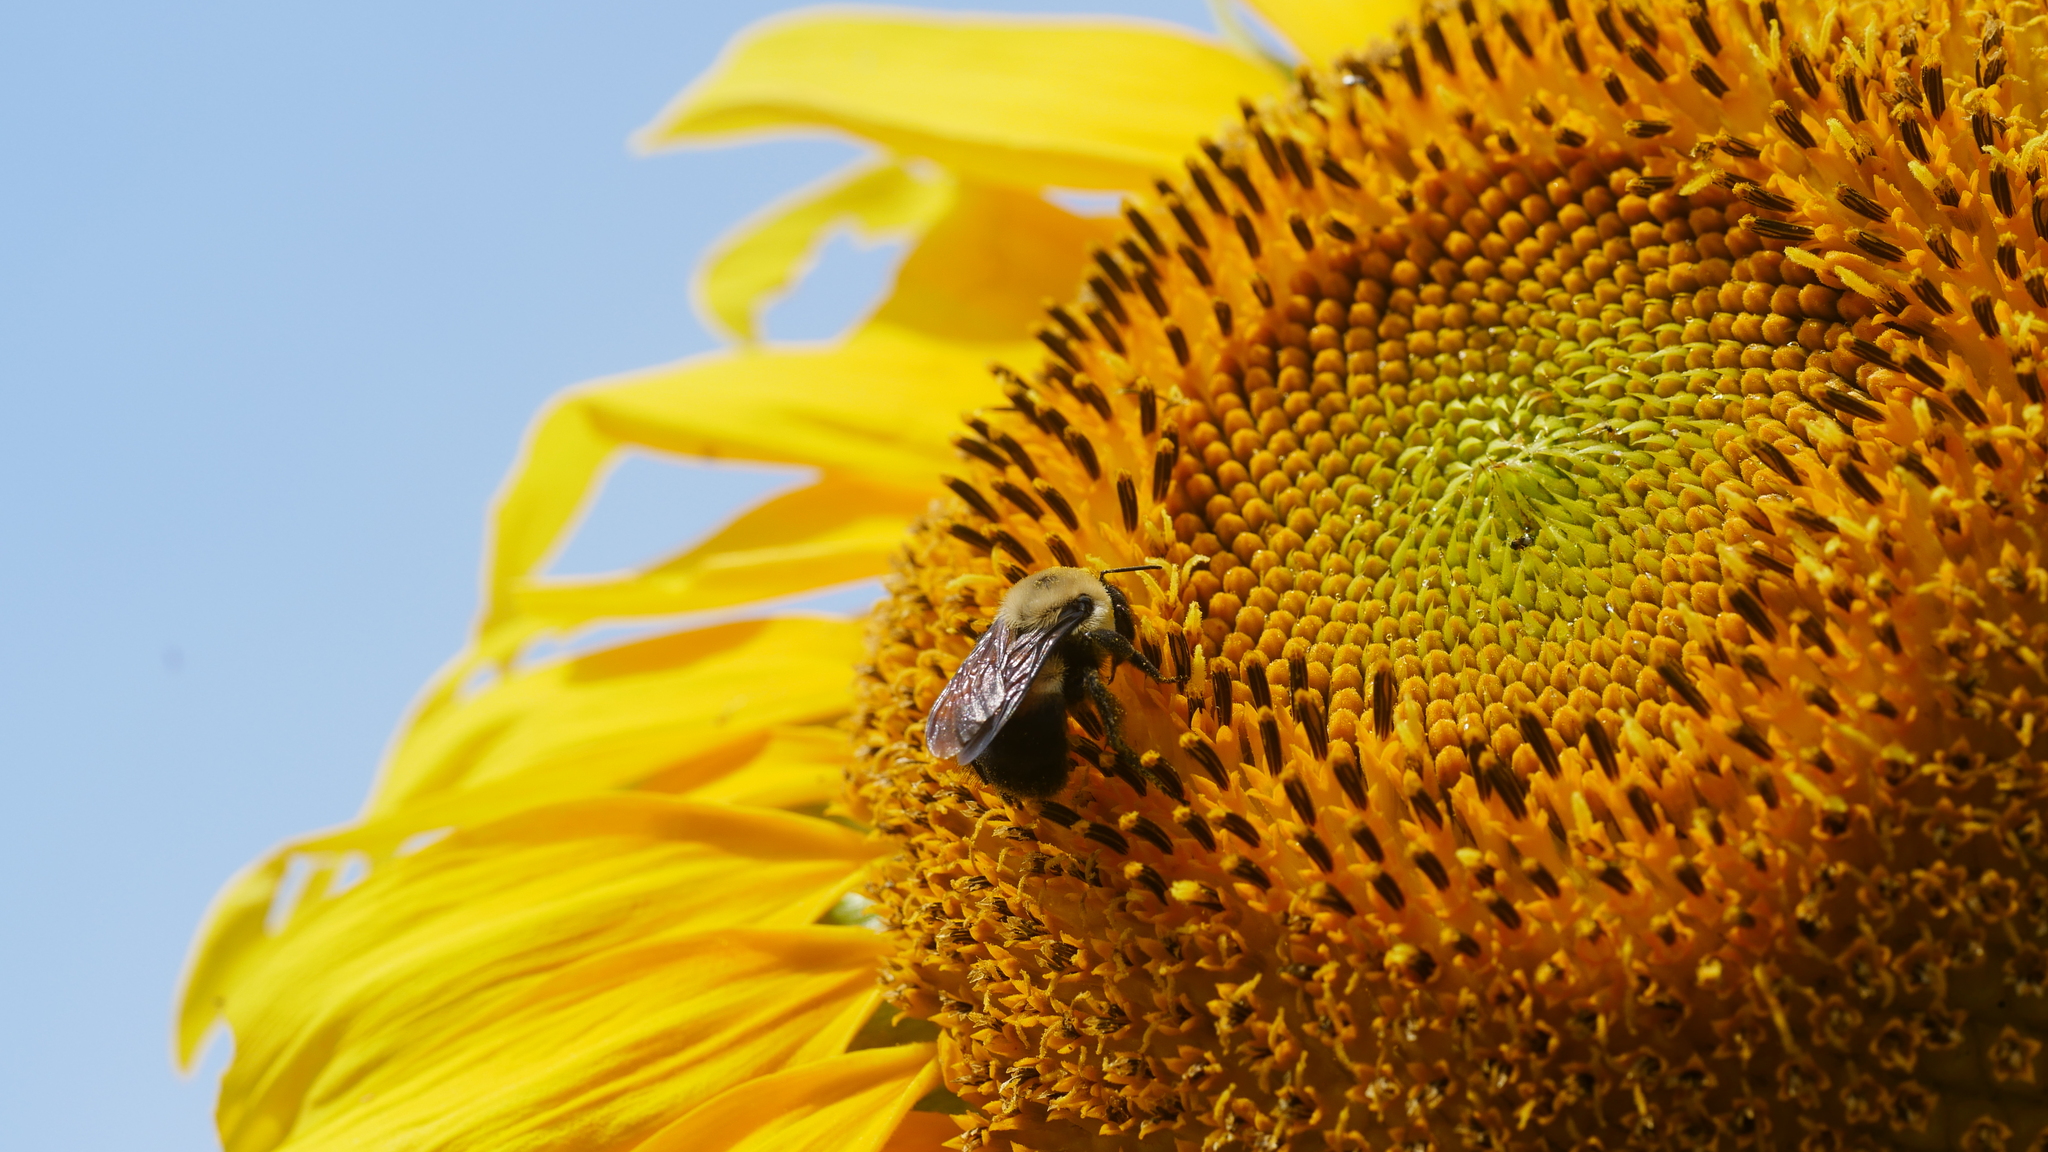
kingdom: Animalia
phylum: Arthropoda
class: Insecta
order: Hymenoptera
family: Apidae
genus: Bombus
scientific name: Bombus griseocollis
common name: Brown-belted bumble bee
